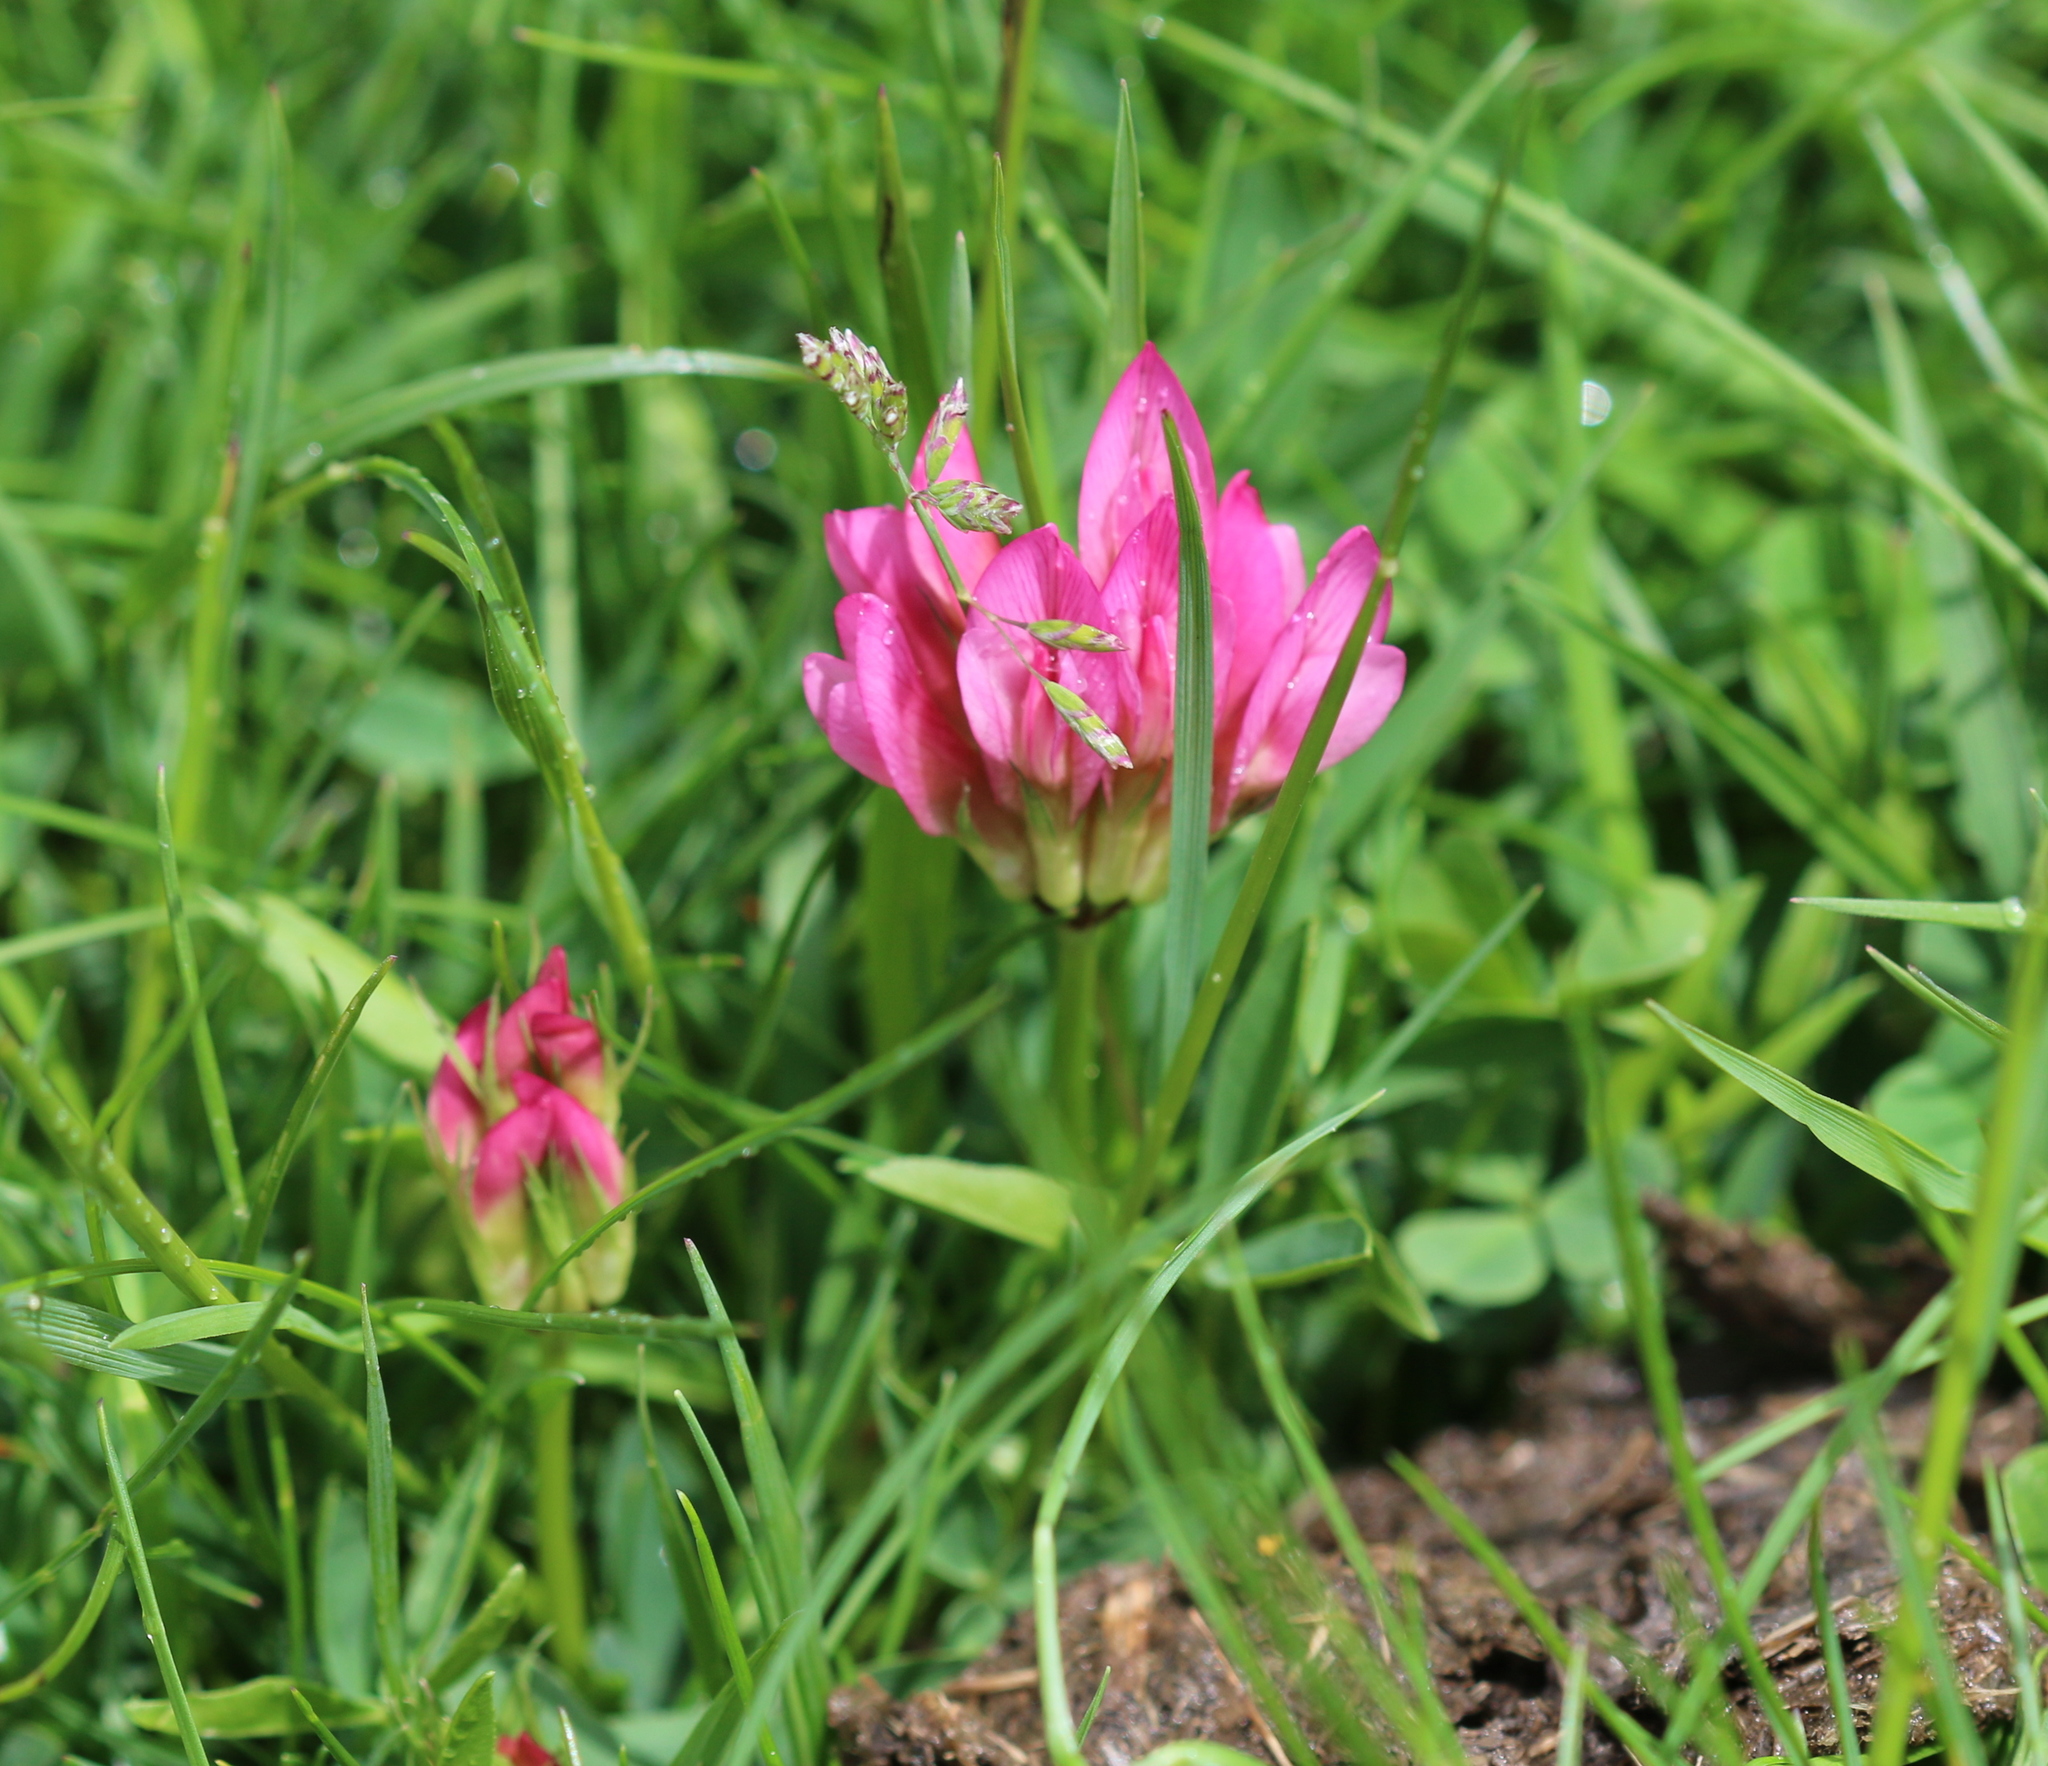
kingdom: Plantae
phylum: Tracheophyta
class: Magnoliopsida
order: Fabales
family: Fabaceae
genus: Trifolium
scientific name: Trifolium alpinum
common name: Alpine clover
